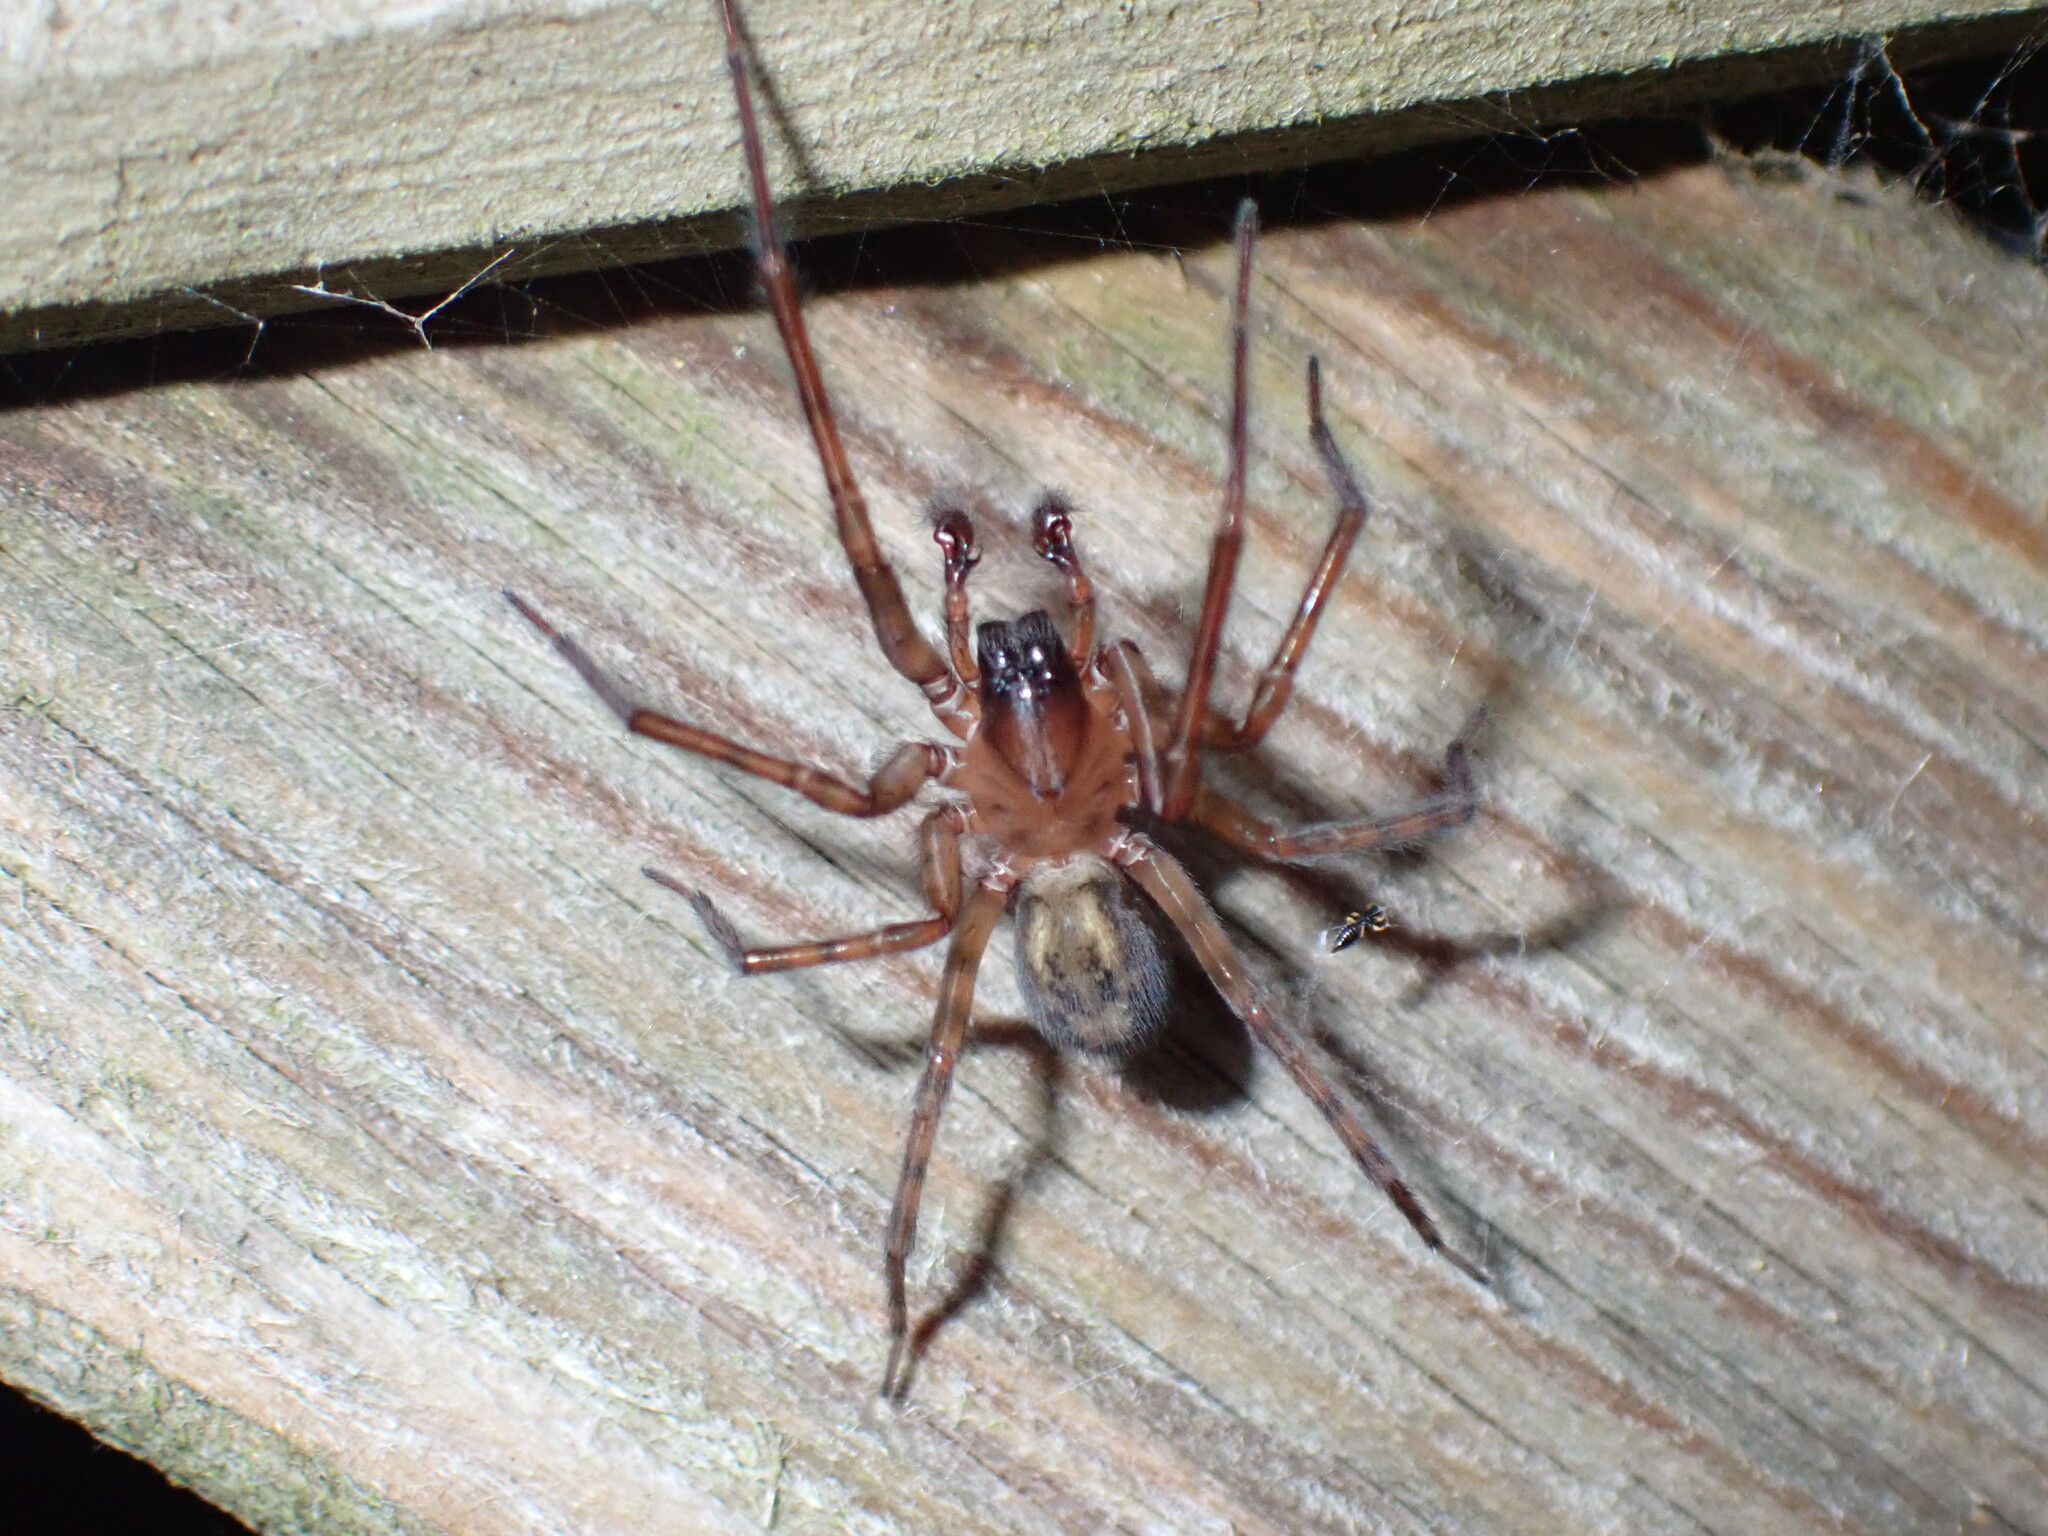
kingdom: Animalia
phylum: Arthropoda
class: Arachnida
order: Araneae
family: Amaurobiidae
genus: Amaurobius
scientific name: Amaurobius similis
